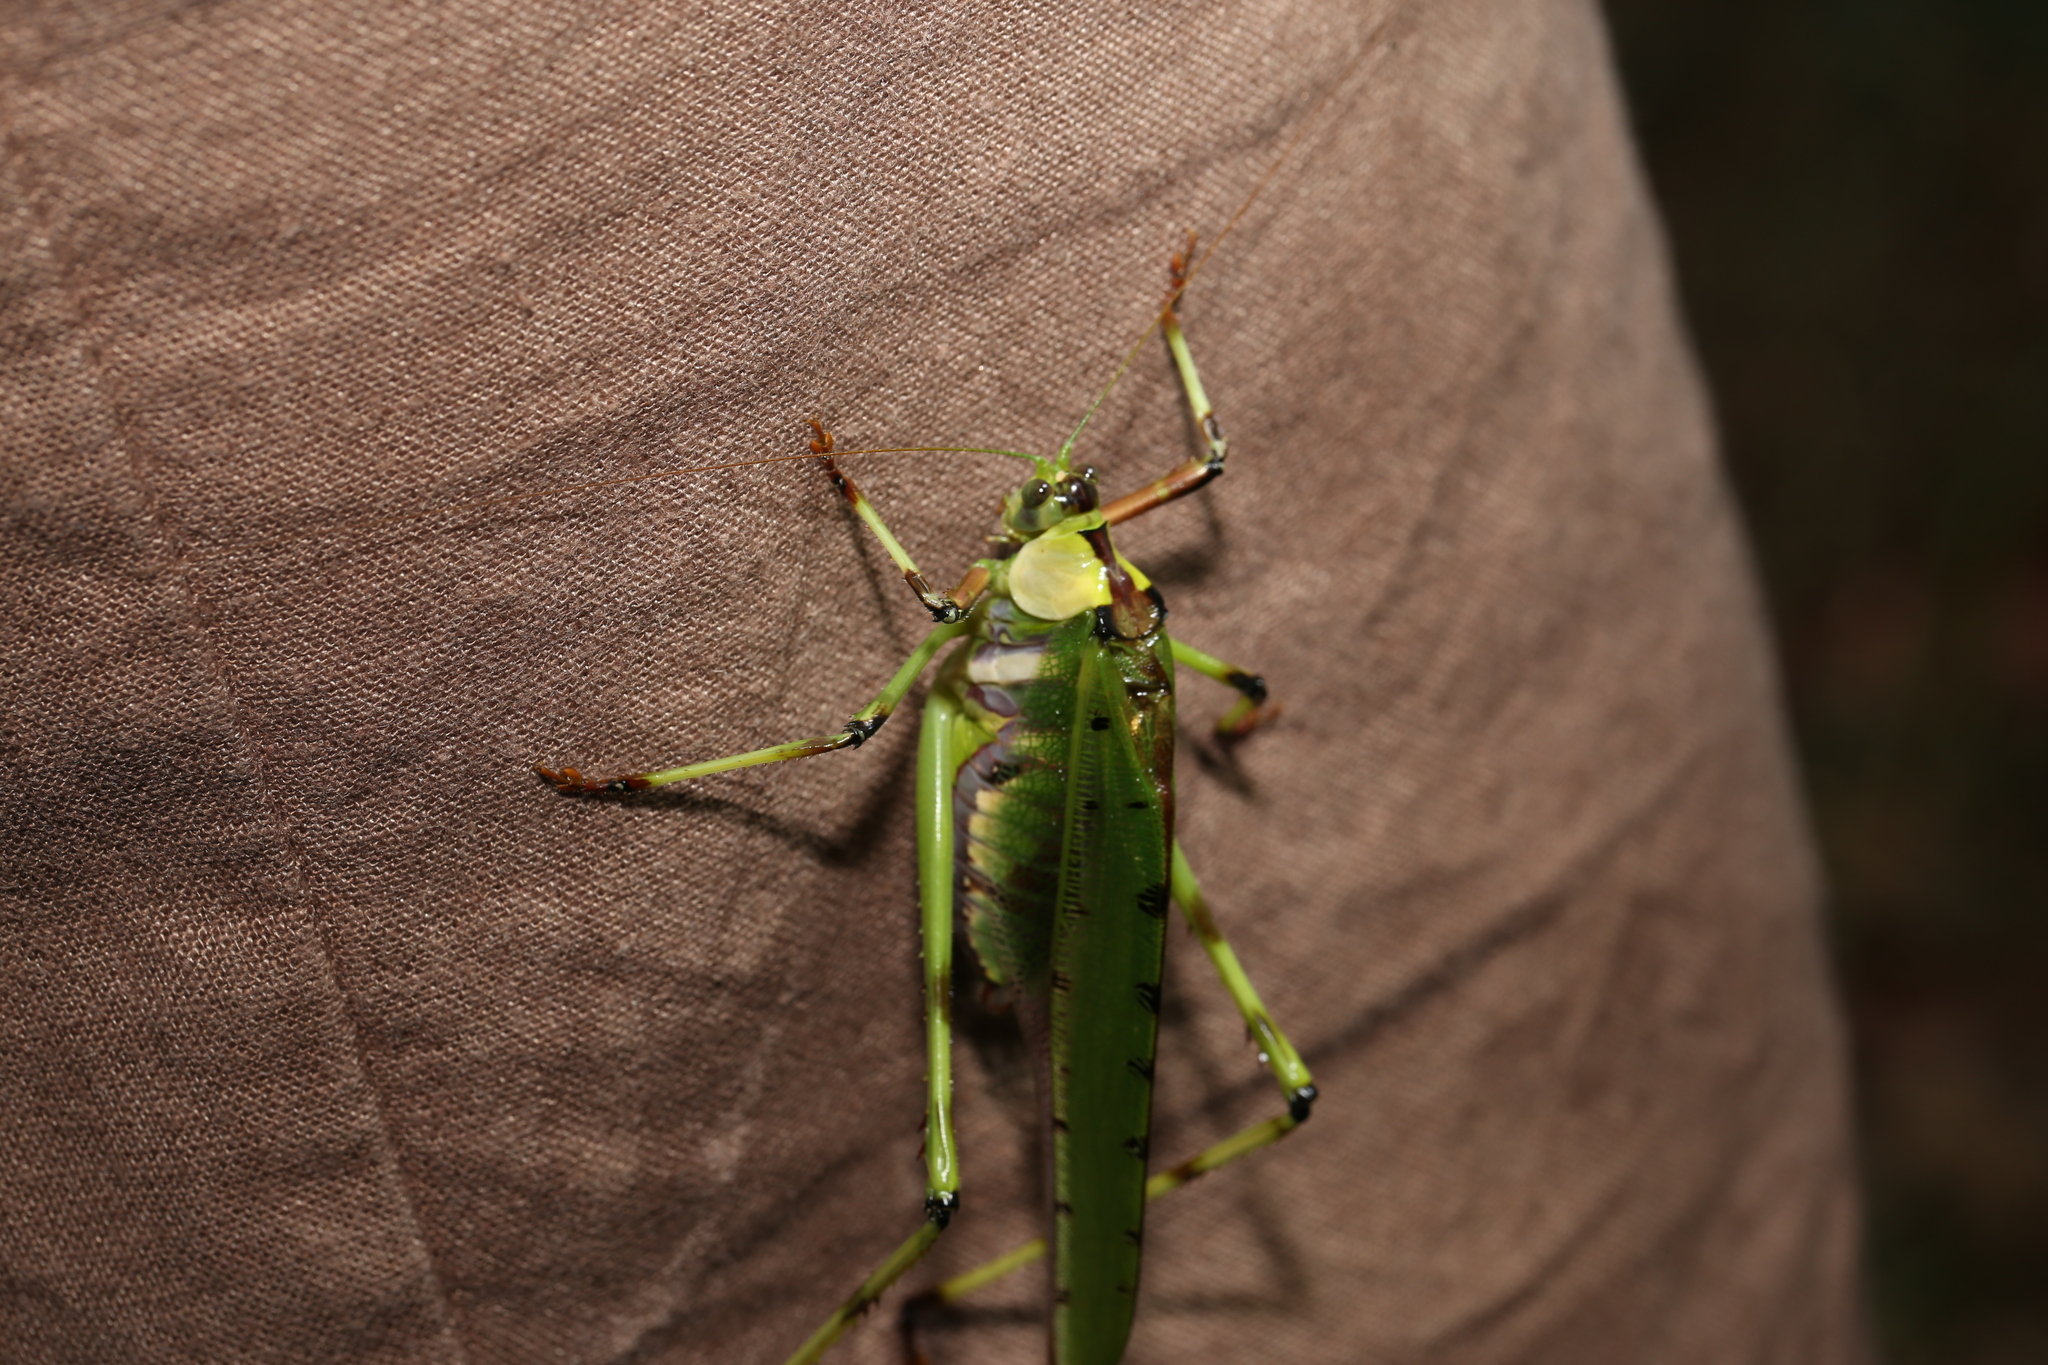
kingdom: Animalia
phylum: Arthropoda
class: Insecta
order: Orthoptera
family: Tettigoniidae
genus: Ephippitytha
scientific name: Ephippitytha trigintiduoguttata
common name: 32-spotted katydid
